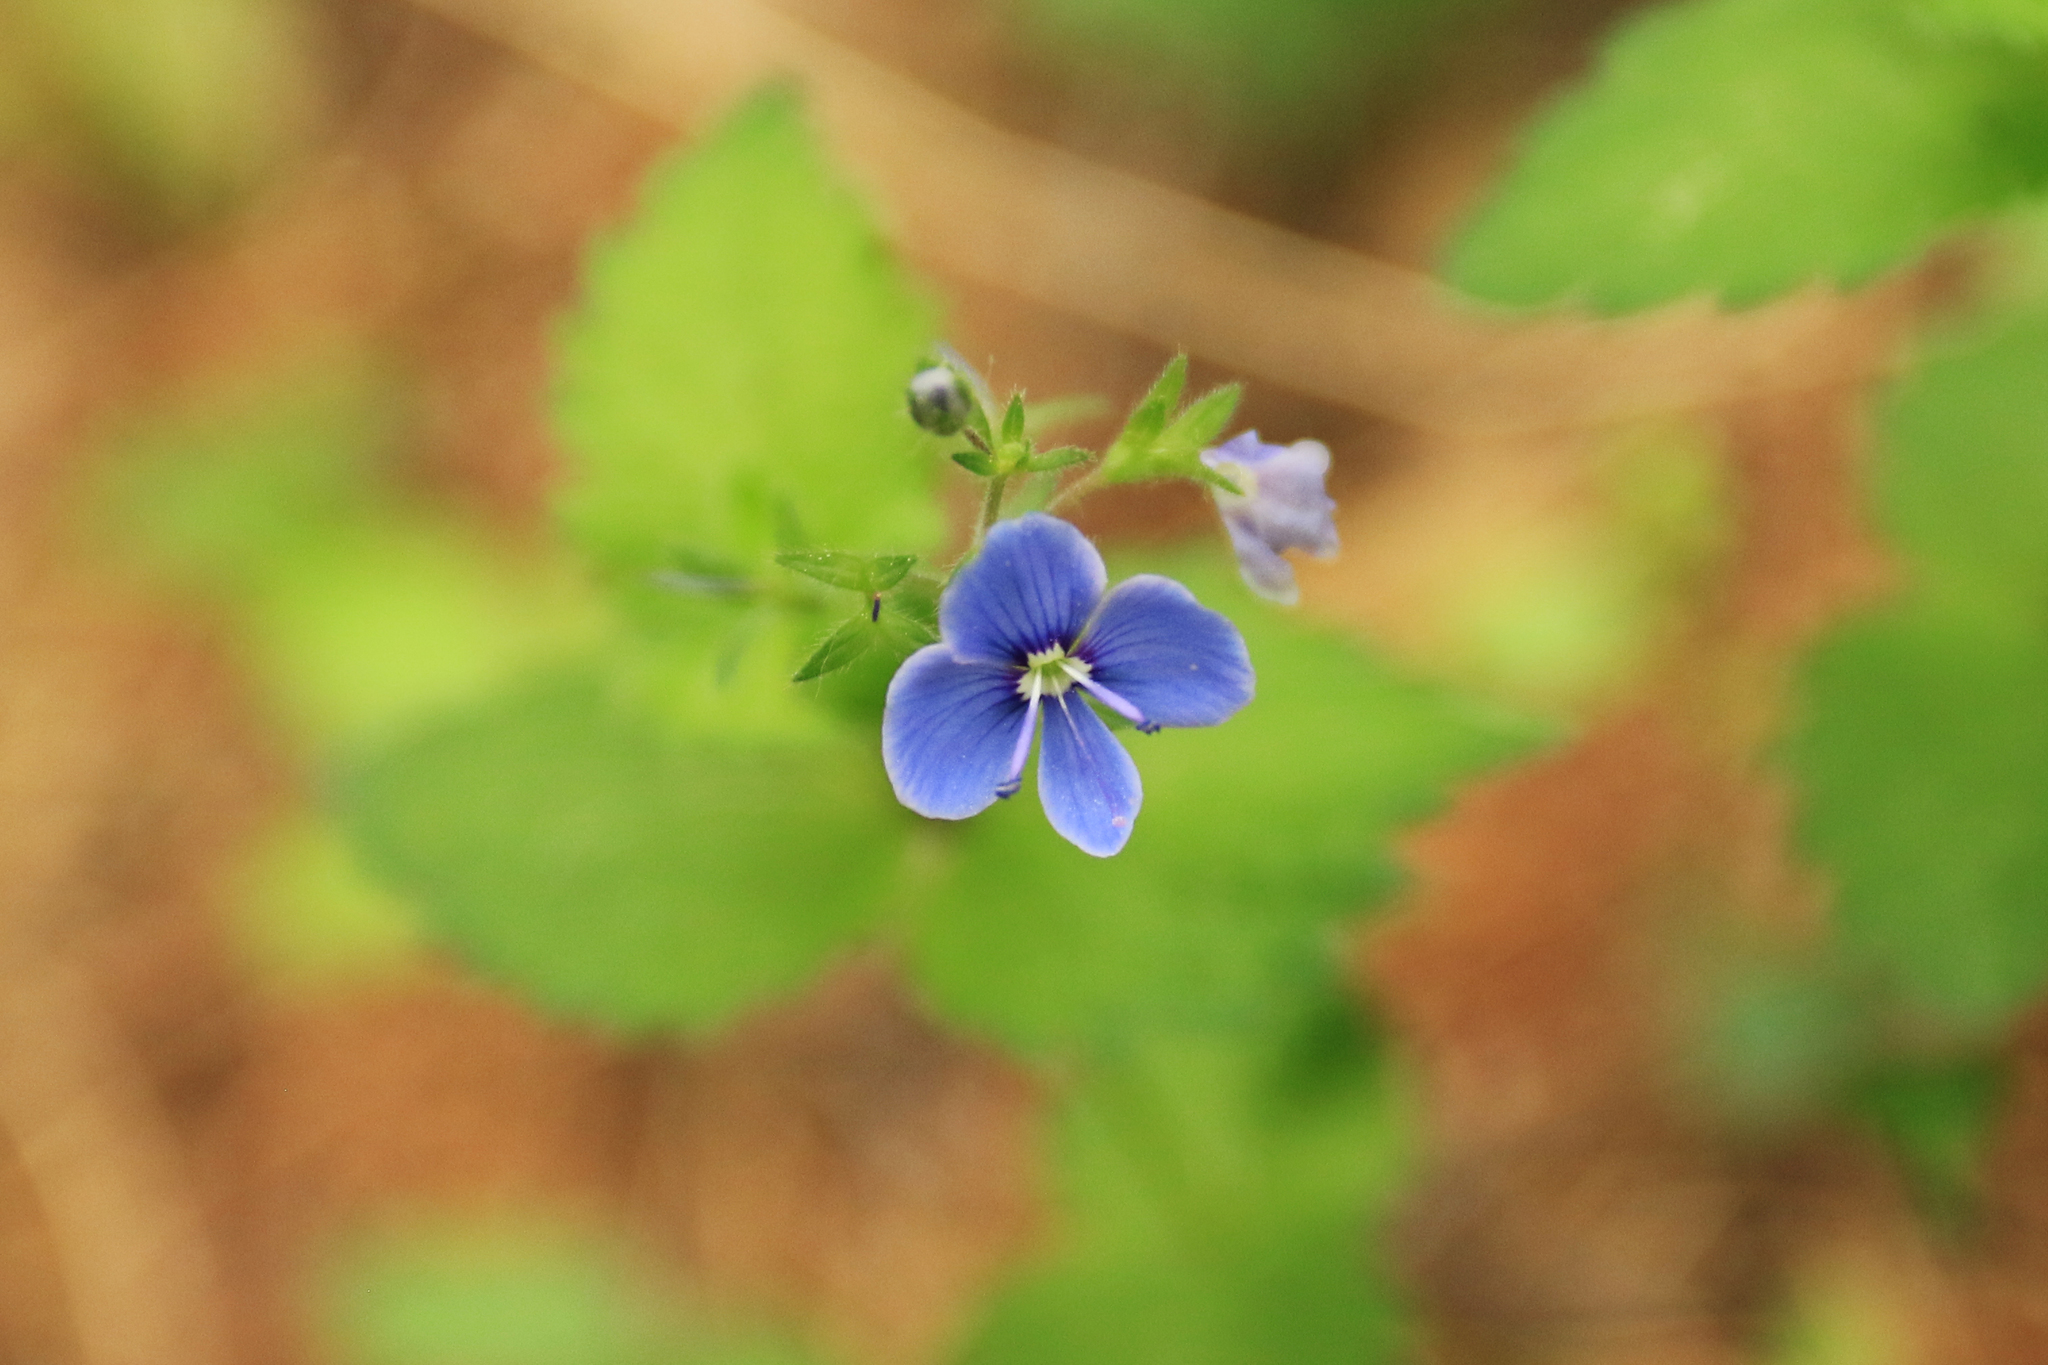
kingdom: Plantae
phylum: Tracheophyta
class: Magnoliopsida
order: Lamiales
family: Plantaginaceae
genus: Veronica
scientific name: Veronica chamaedrys
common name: Germander speedwell
